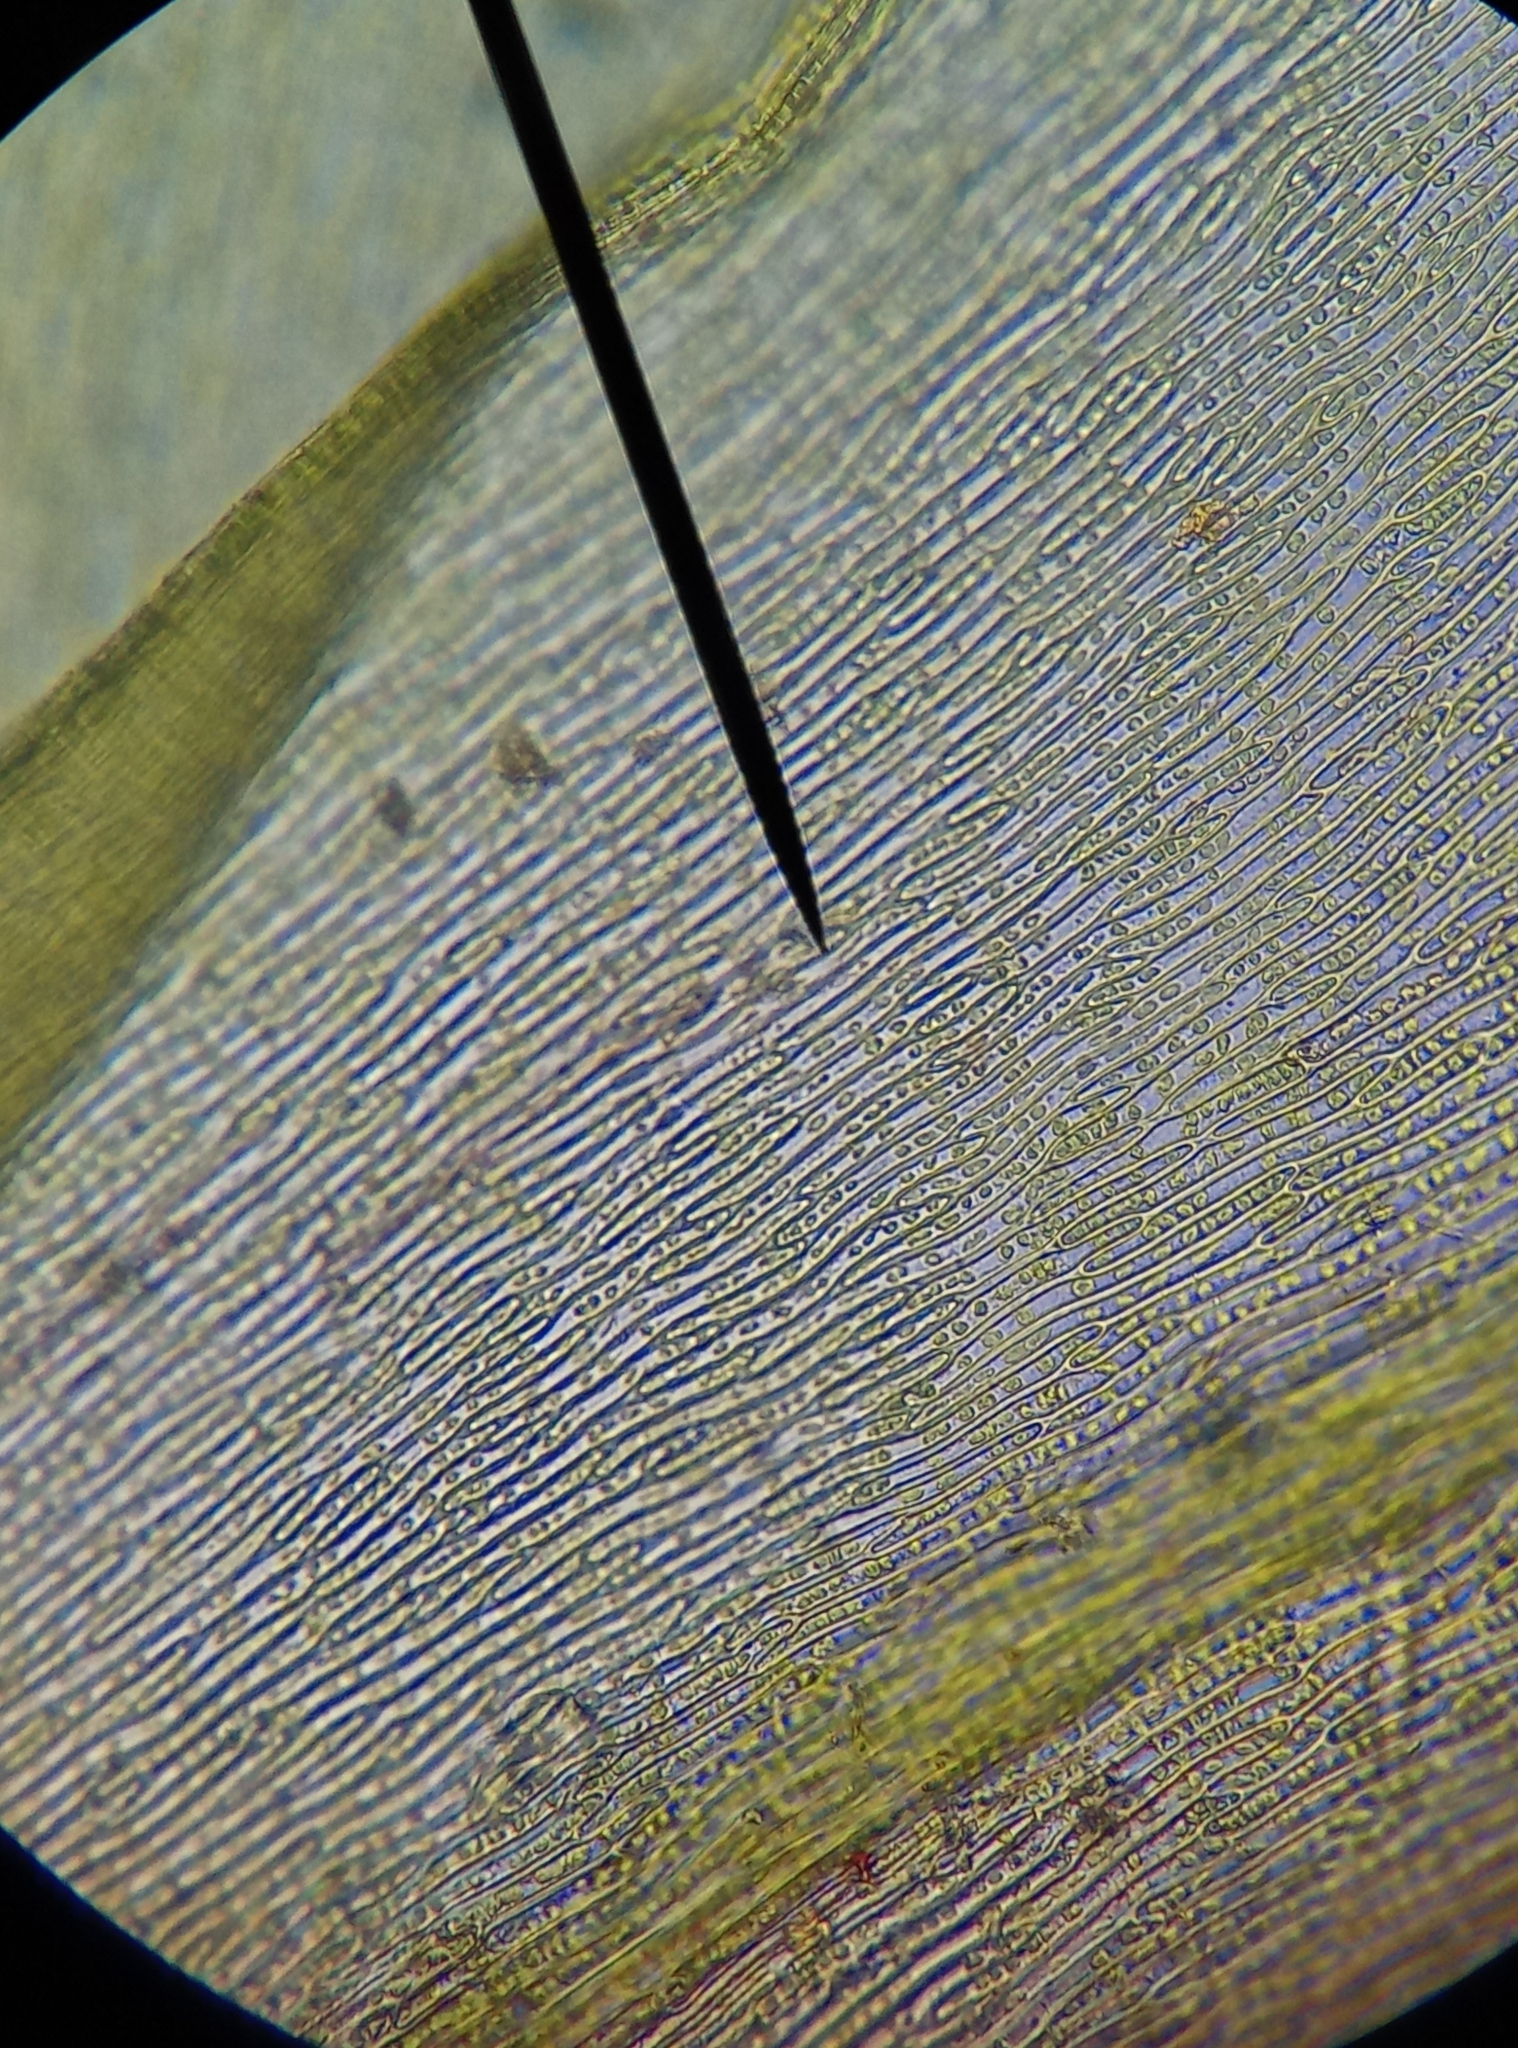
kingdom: Plantae
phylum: Bryophyta
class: Bryopsida
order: Hypnales
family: Brachytheciaceae
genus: Eurhynchium
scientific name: Eurhynchium striatum
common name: Common striated feather-moss
